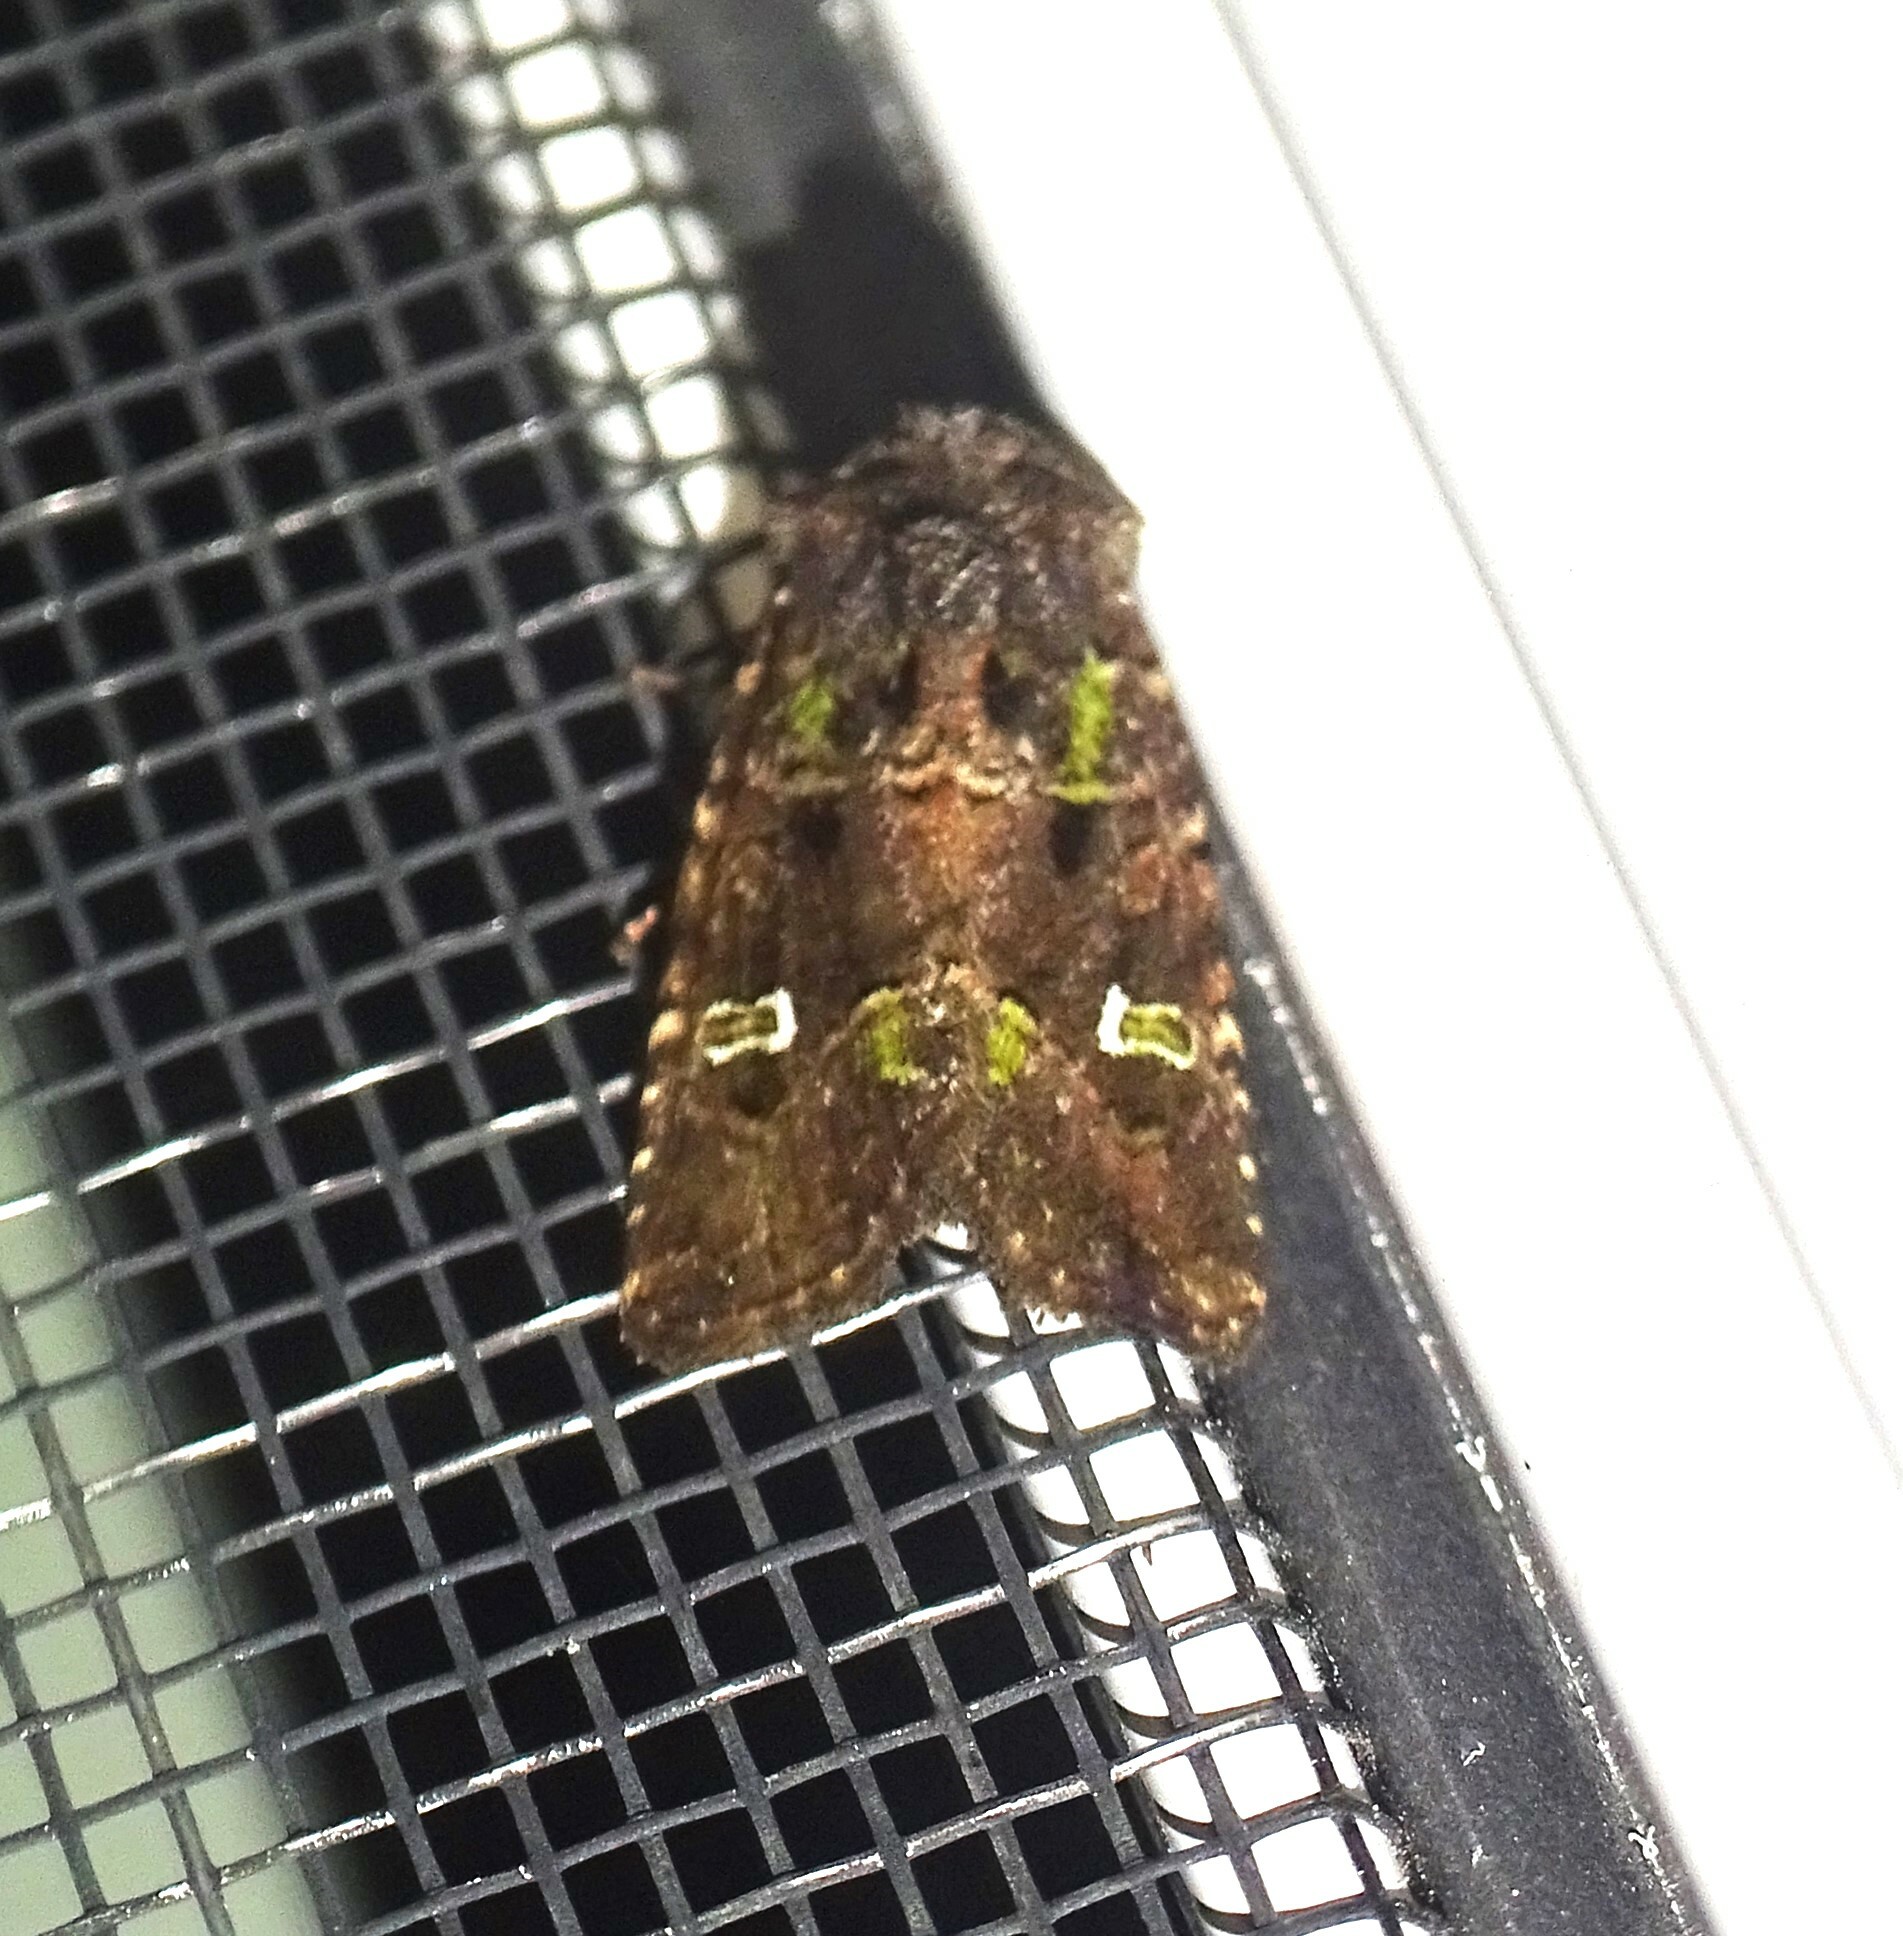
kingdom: Animalia
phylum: Arthropoda
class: Insecta
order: Lepidoptera
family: Noctuidae
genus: Lacinipolia
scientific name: Lacinipolia renigera
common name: Kidney-spotted minor
